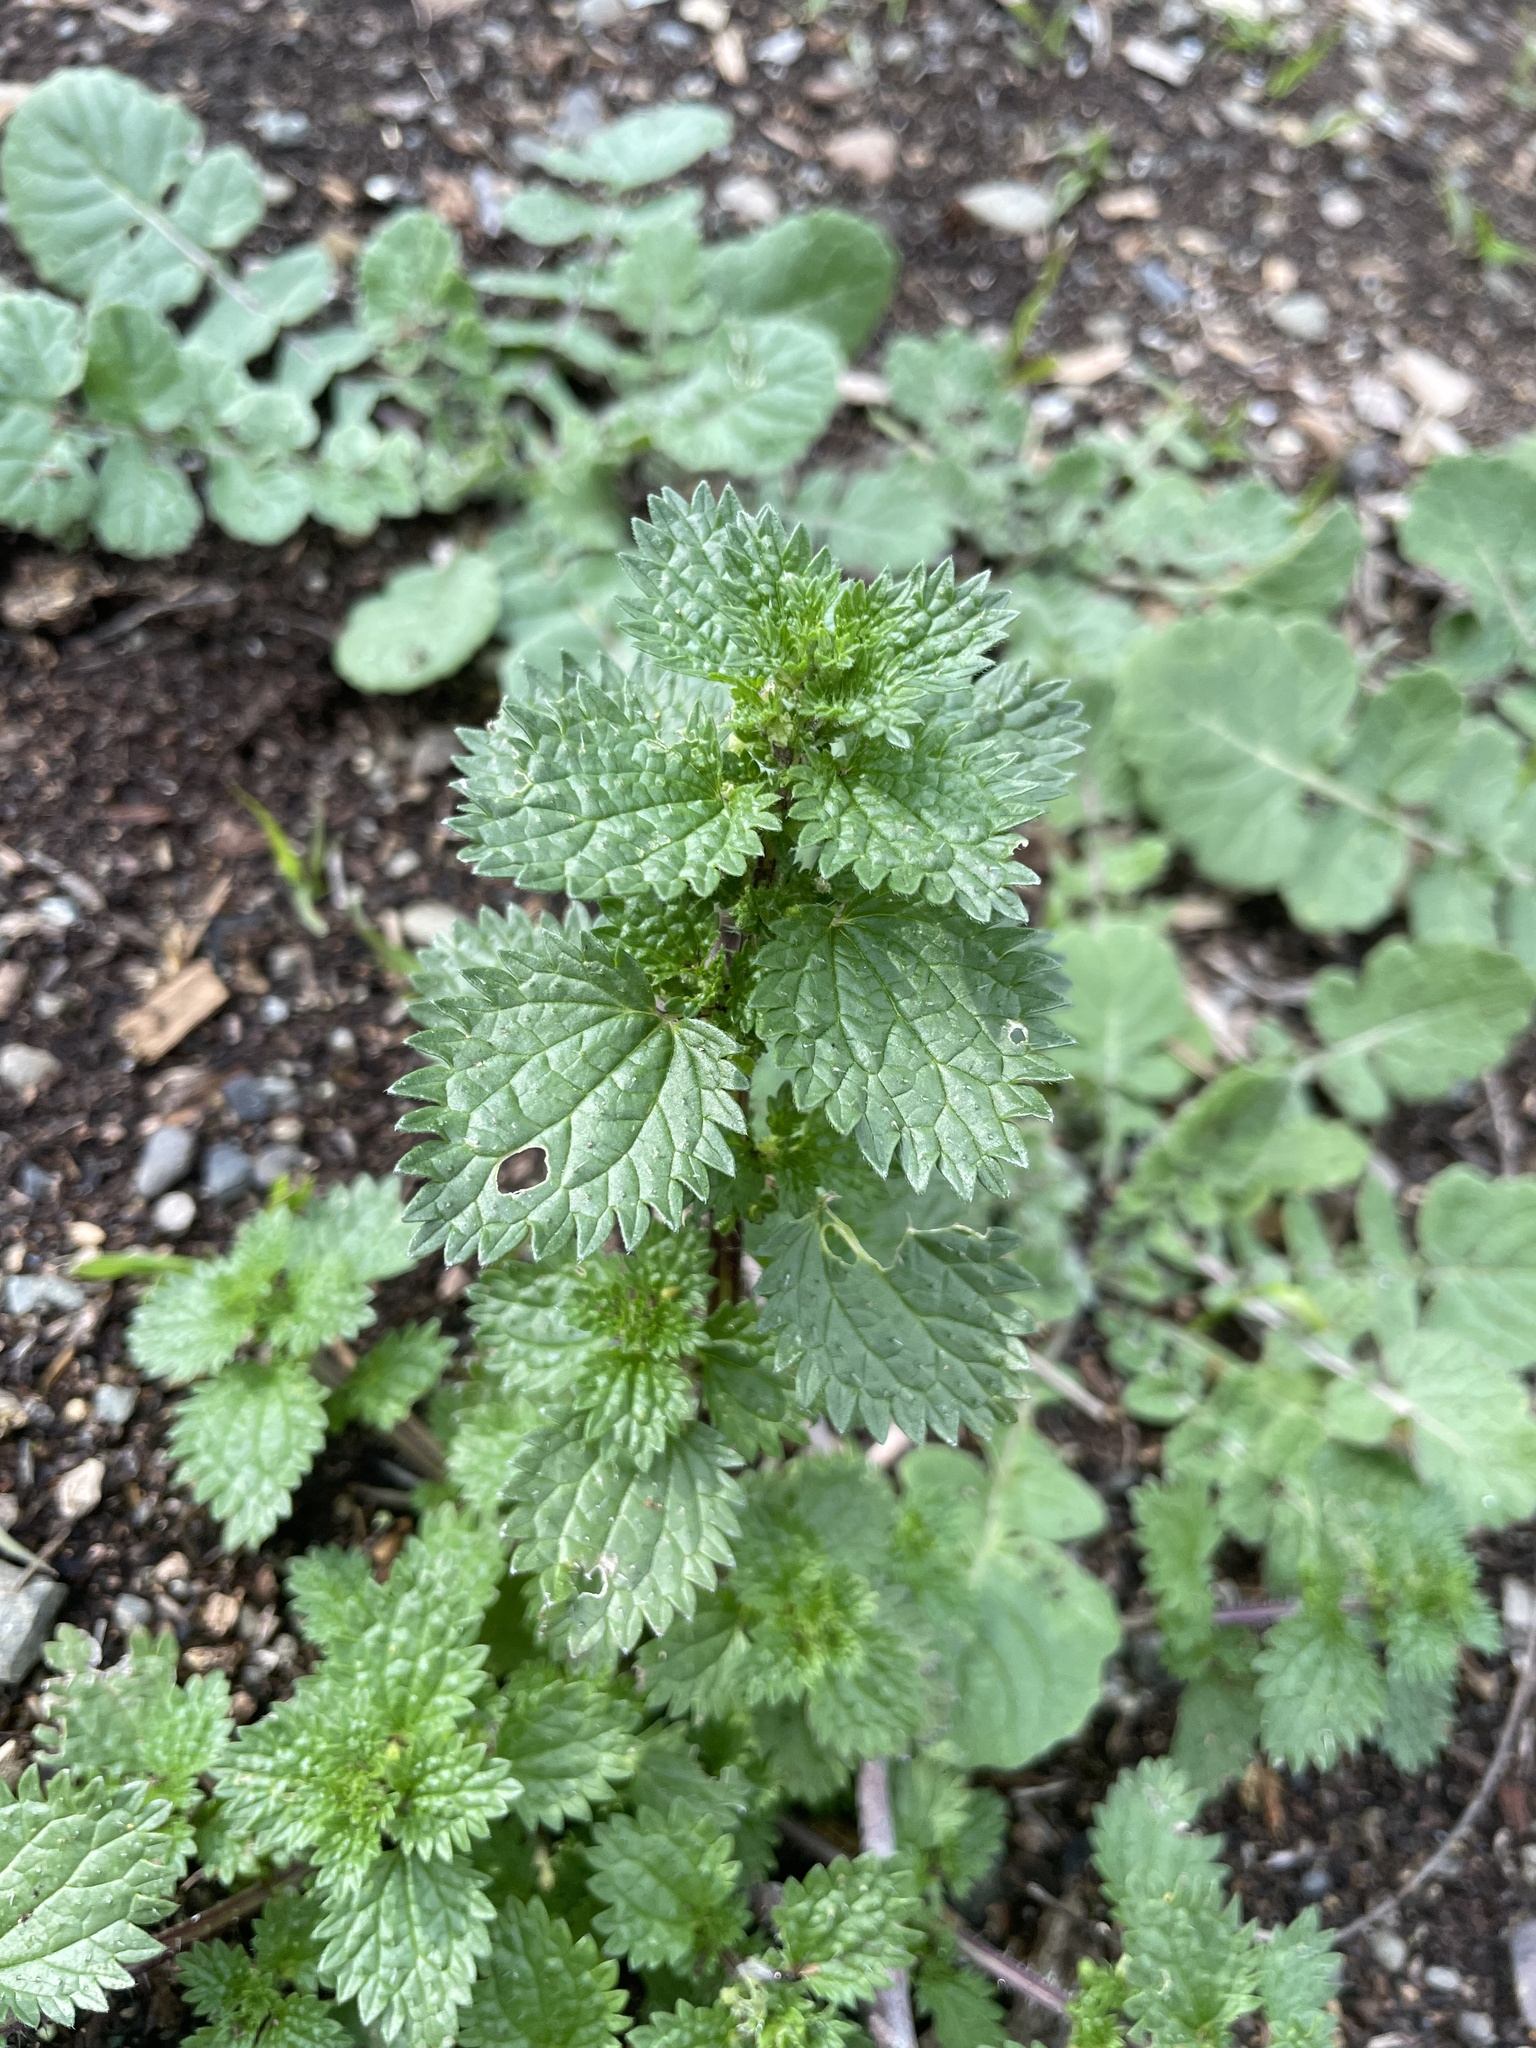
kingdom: Plantae
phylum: Tracheophyta
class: Magnoliopsida
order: Rosales
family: Urticaceae
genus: Urtica
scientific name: Urtica urens
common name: Dwarf nettle
